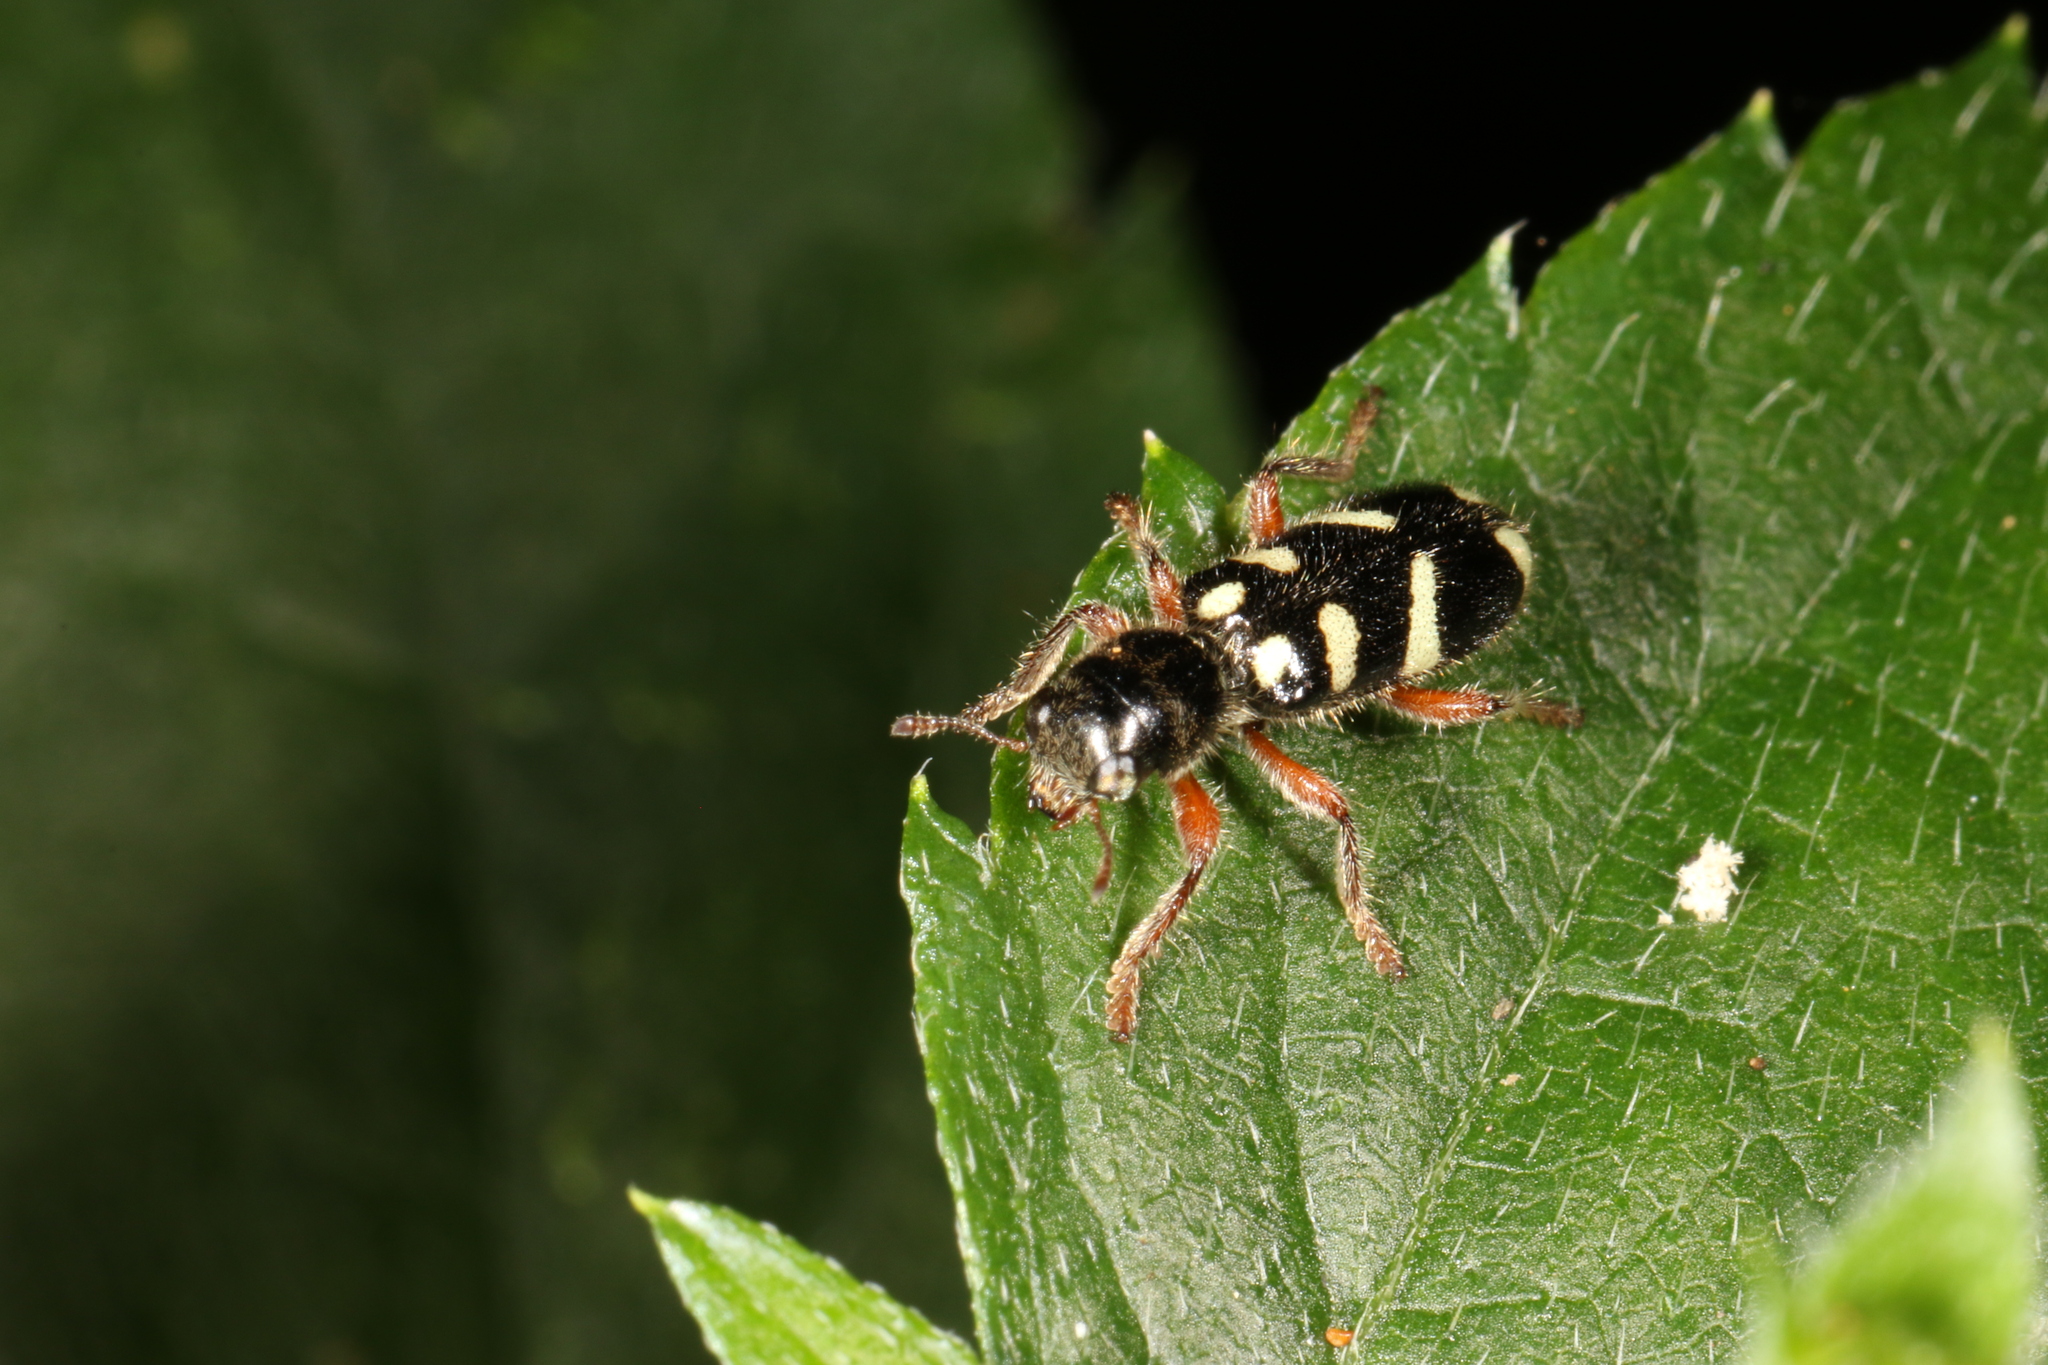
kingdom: Animalia
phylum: Arthropoda
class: Insecta
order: Coleoptera
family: Cleridae
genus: Enoclerus
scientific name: Enoclerus
